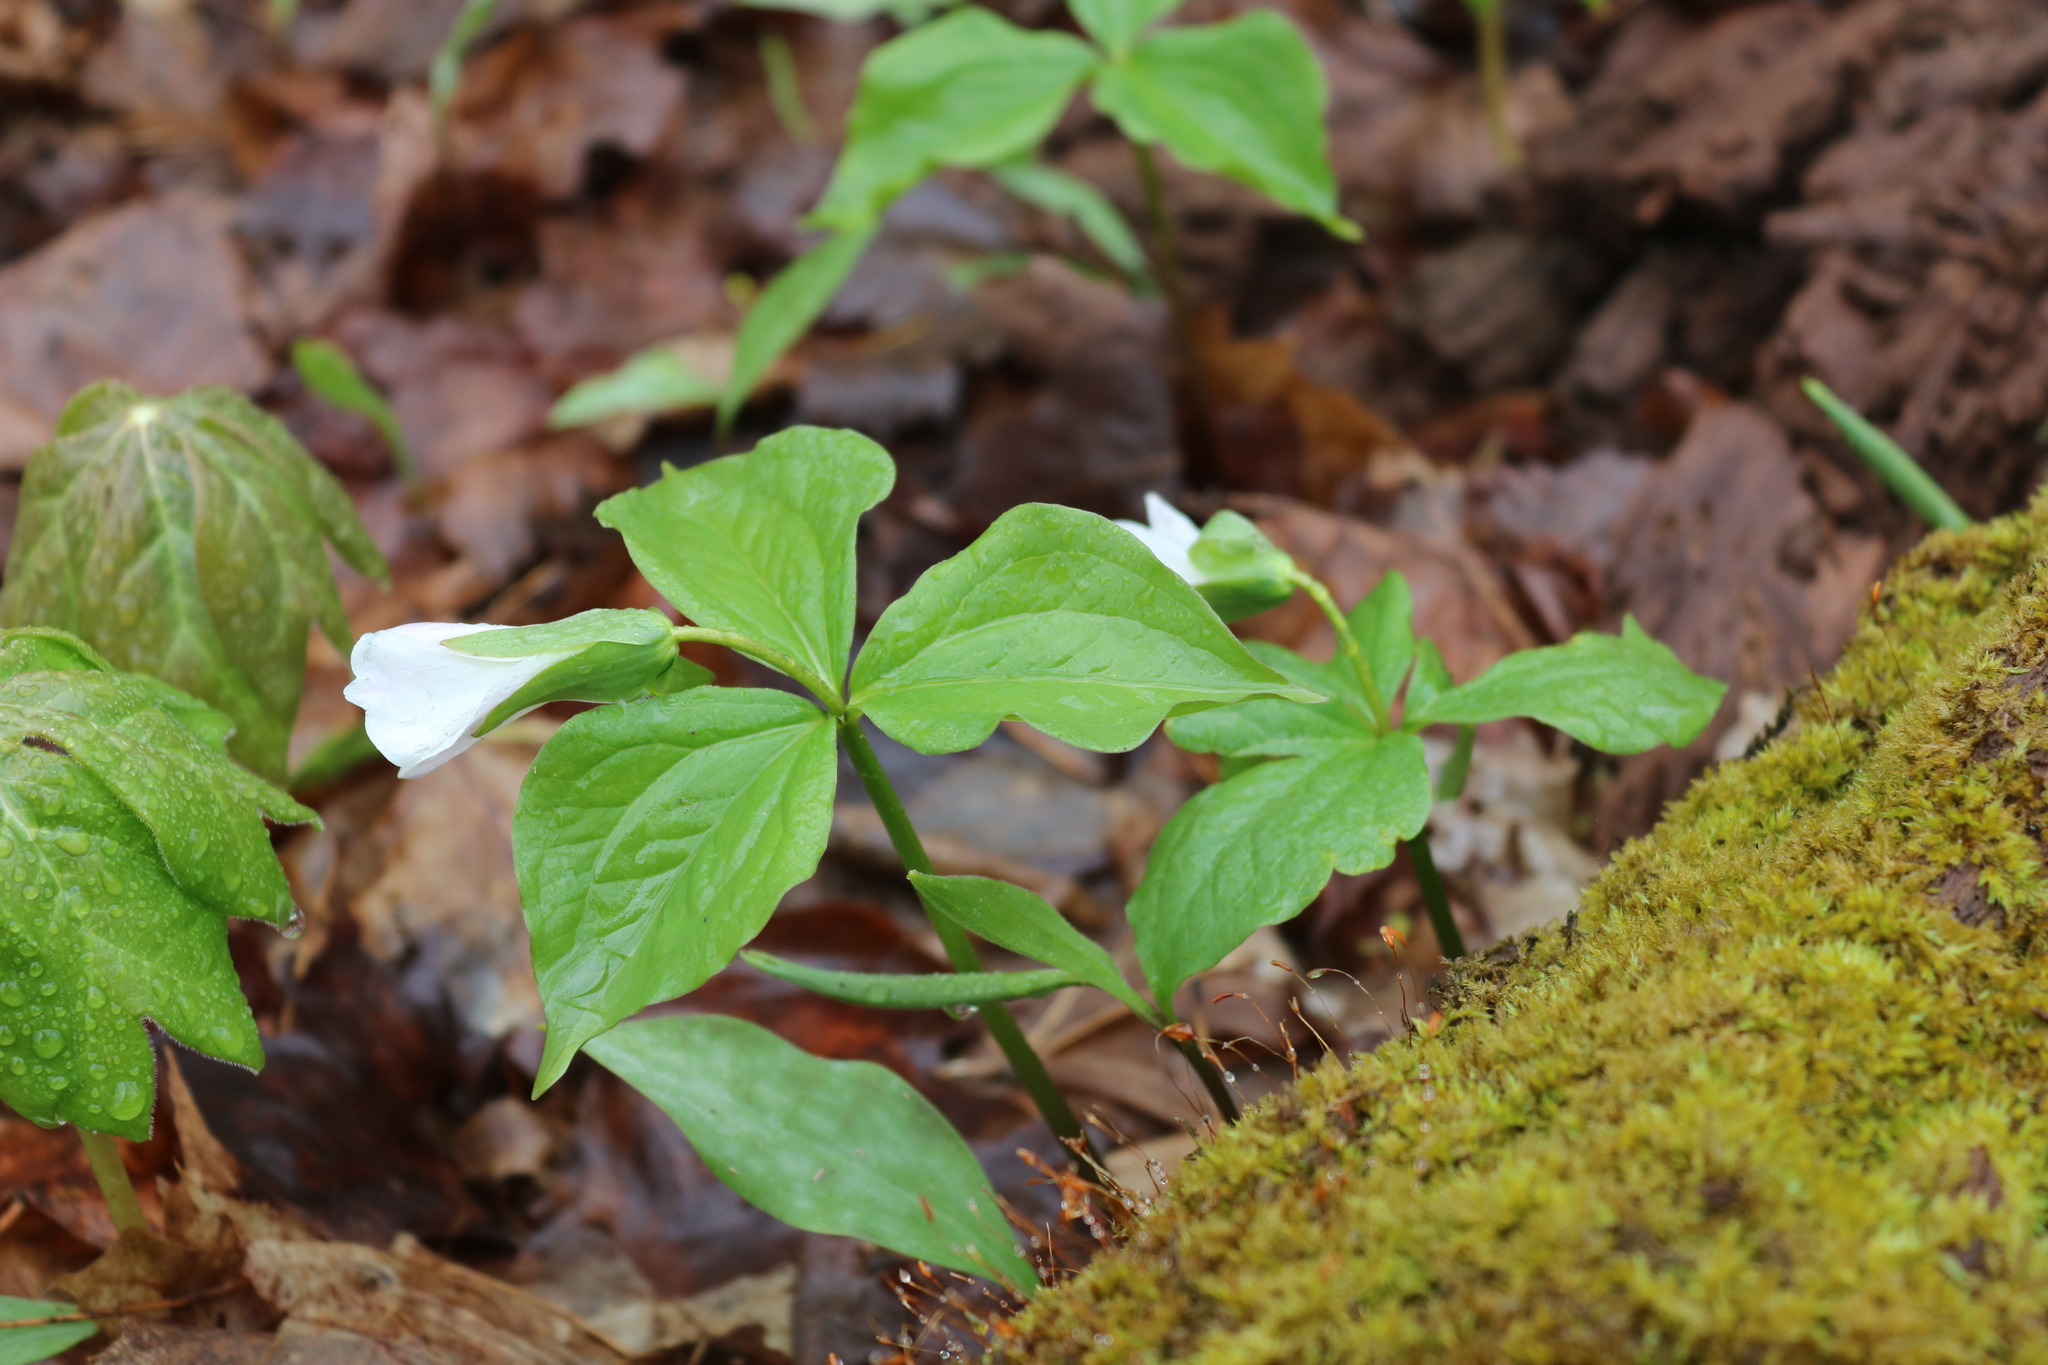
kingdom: Plantae
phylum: Tracheophyta
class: Liliopsida
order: Liliales
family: Melanthiaceae
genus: Trillium
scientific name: Trillium grandiflorum
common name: Great white trillium
